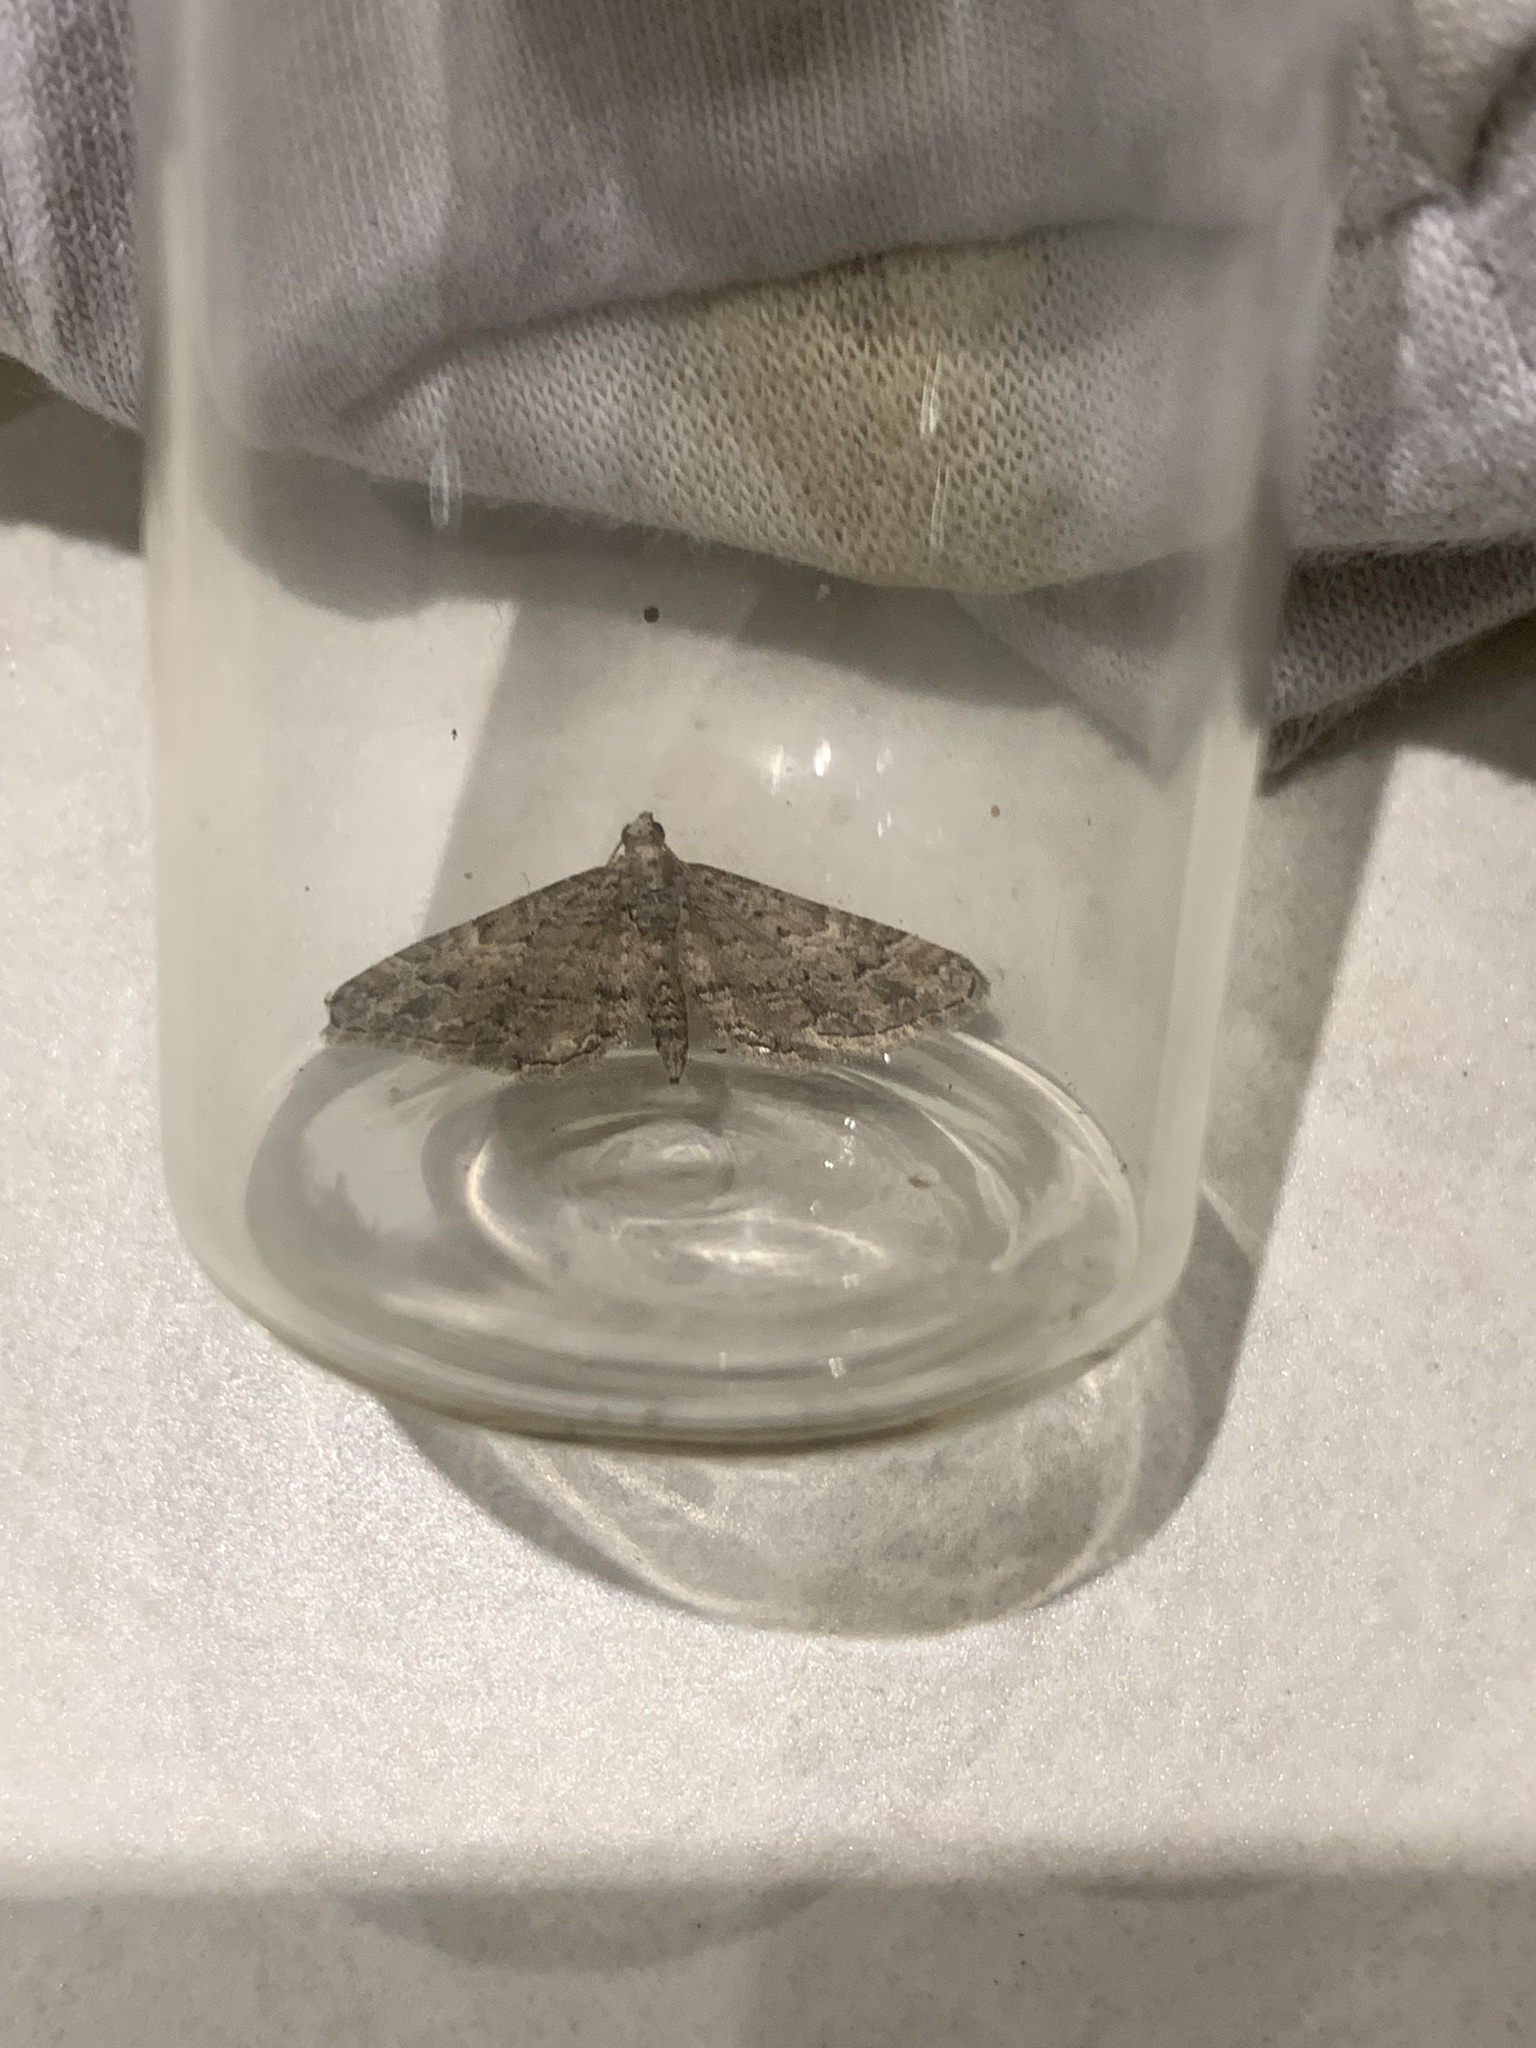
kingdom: Animalia
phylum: Arthropoda
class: Insecta
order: Lepidoptera
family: Geometridae
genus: Gymnoscelis
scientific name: Gymnoscelis rufifasciata
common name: Double-striped pug
